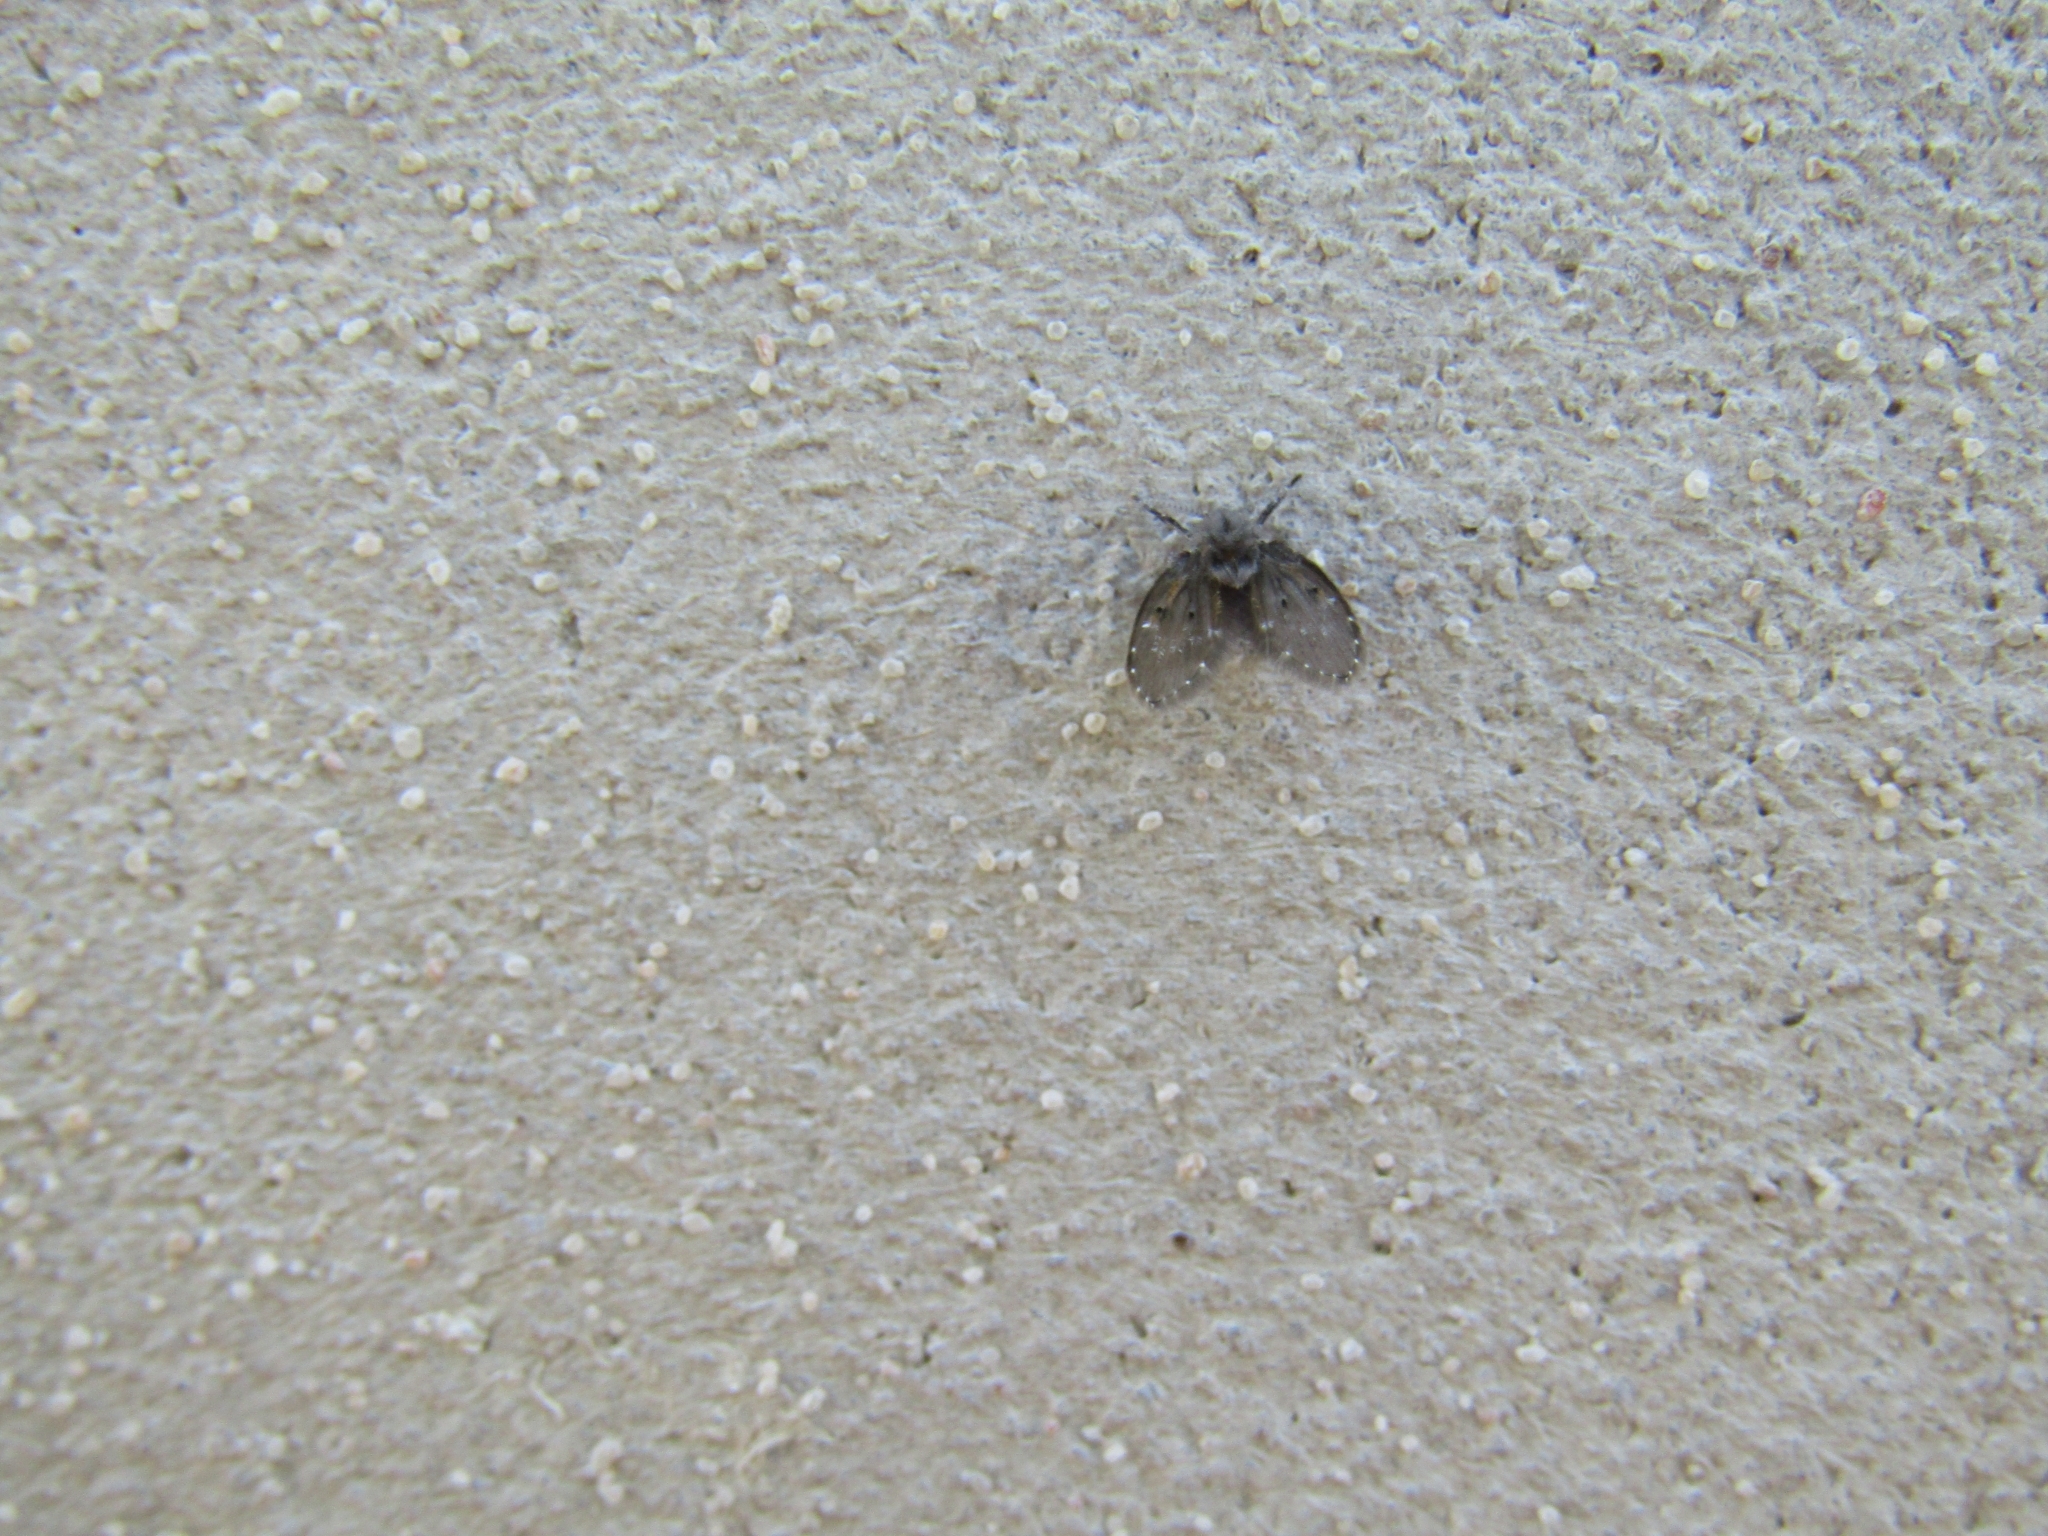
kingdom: Animalia
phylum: Arthropoda
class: Insecta
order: Diptera
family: Psychodidae
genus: Clogmia
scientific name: Clogmia albipunctatus
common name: White-spotted moth fly
